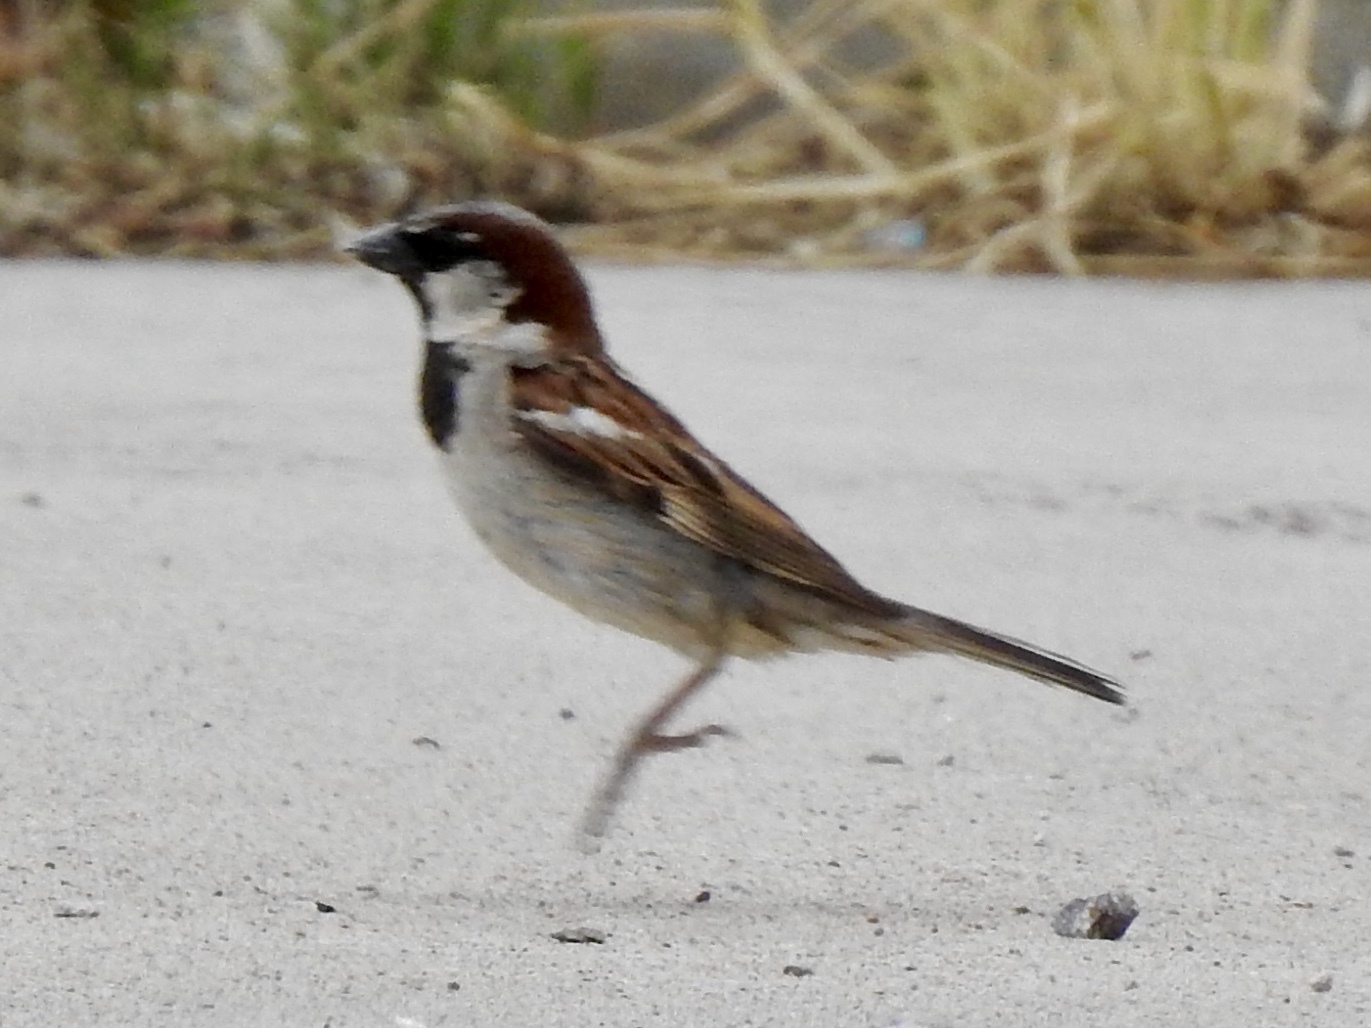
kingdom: Animalia
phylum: Chordata
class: Aves
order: Passeriformes
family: Passeridae
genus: Passer
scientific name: Passer domesticus
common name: House sparrow
